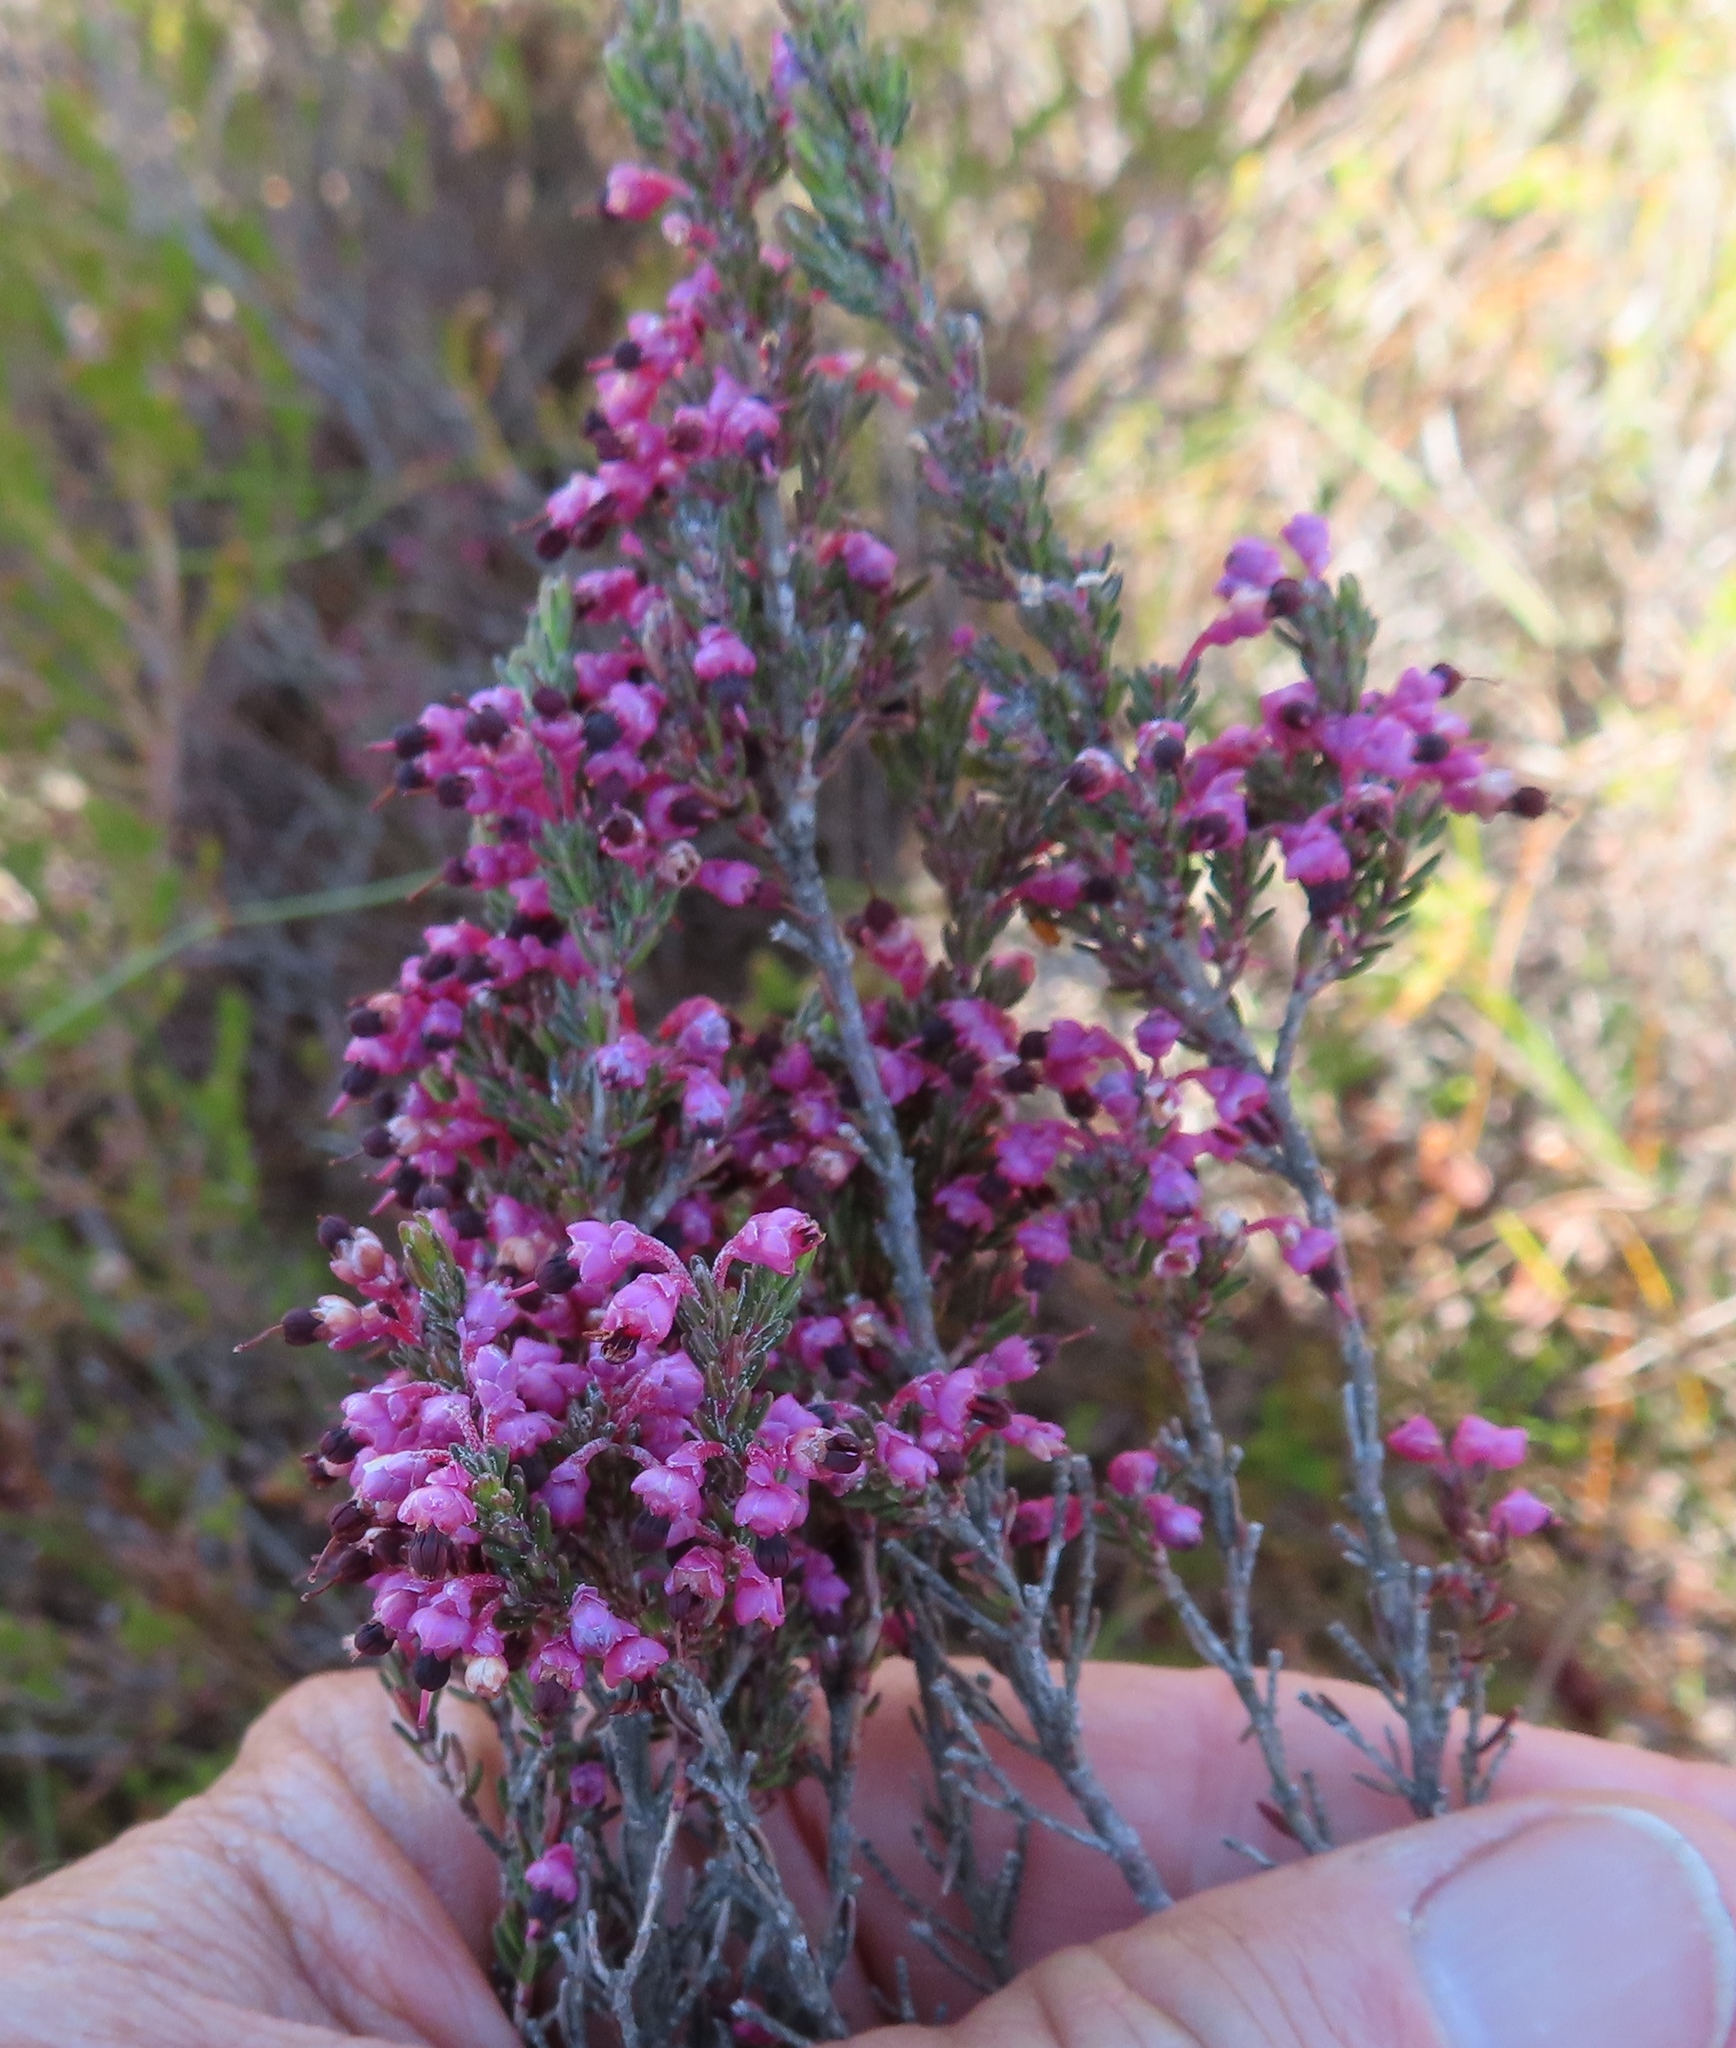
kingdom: Plantae
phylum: Tracheophyta
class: Magnoliopsida
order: Ericales
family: Ericaceae
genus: Erica
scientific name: Erica placentiflora
